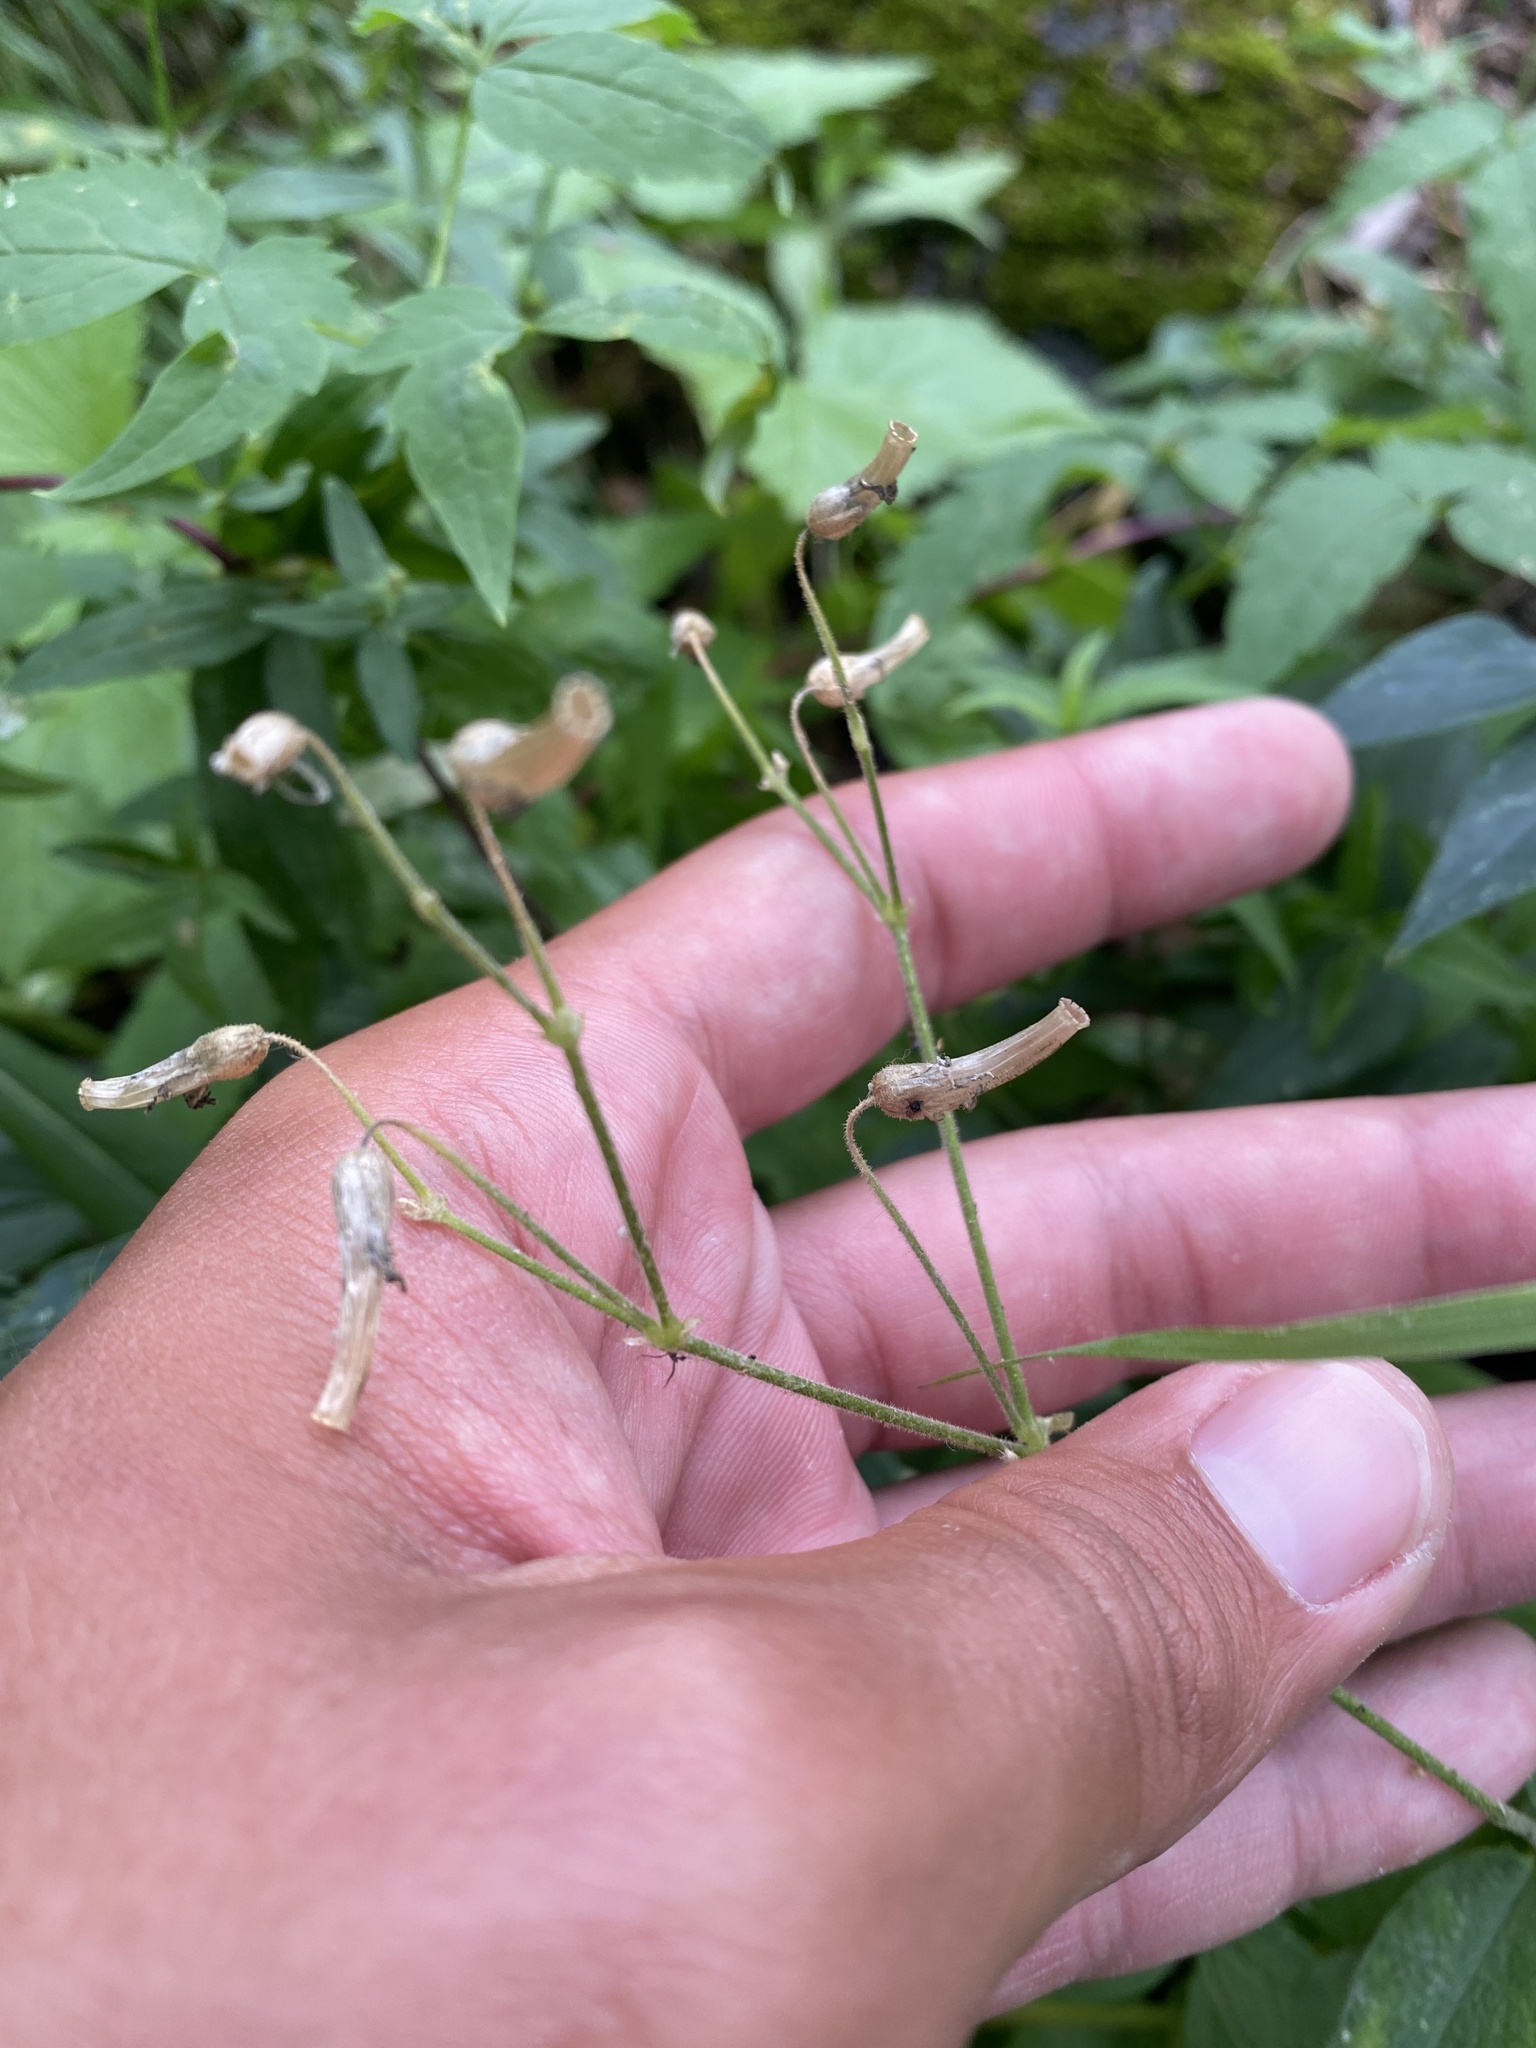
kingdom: Plantae
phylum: Tracheophyta
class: Magnoliopsida
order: Caryophyllales
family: Caryophyllaceae
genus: Cerastium
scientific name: Cerastium pauciflorum
